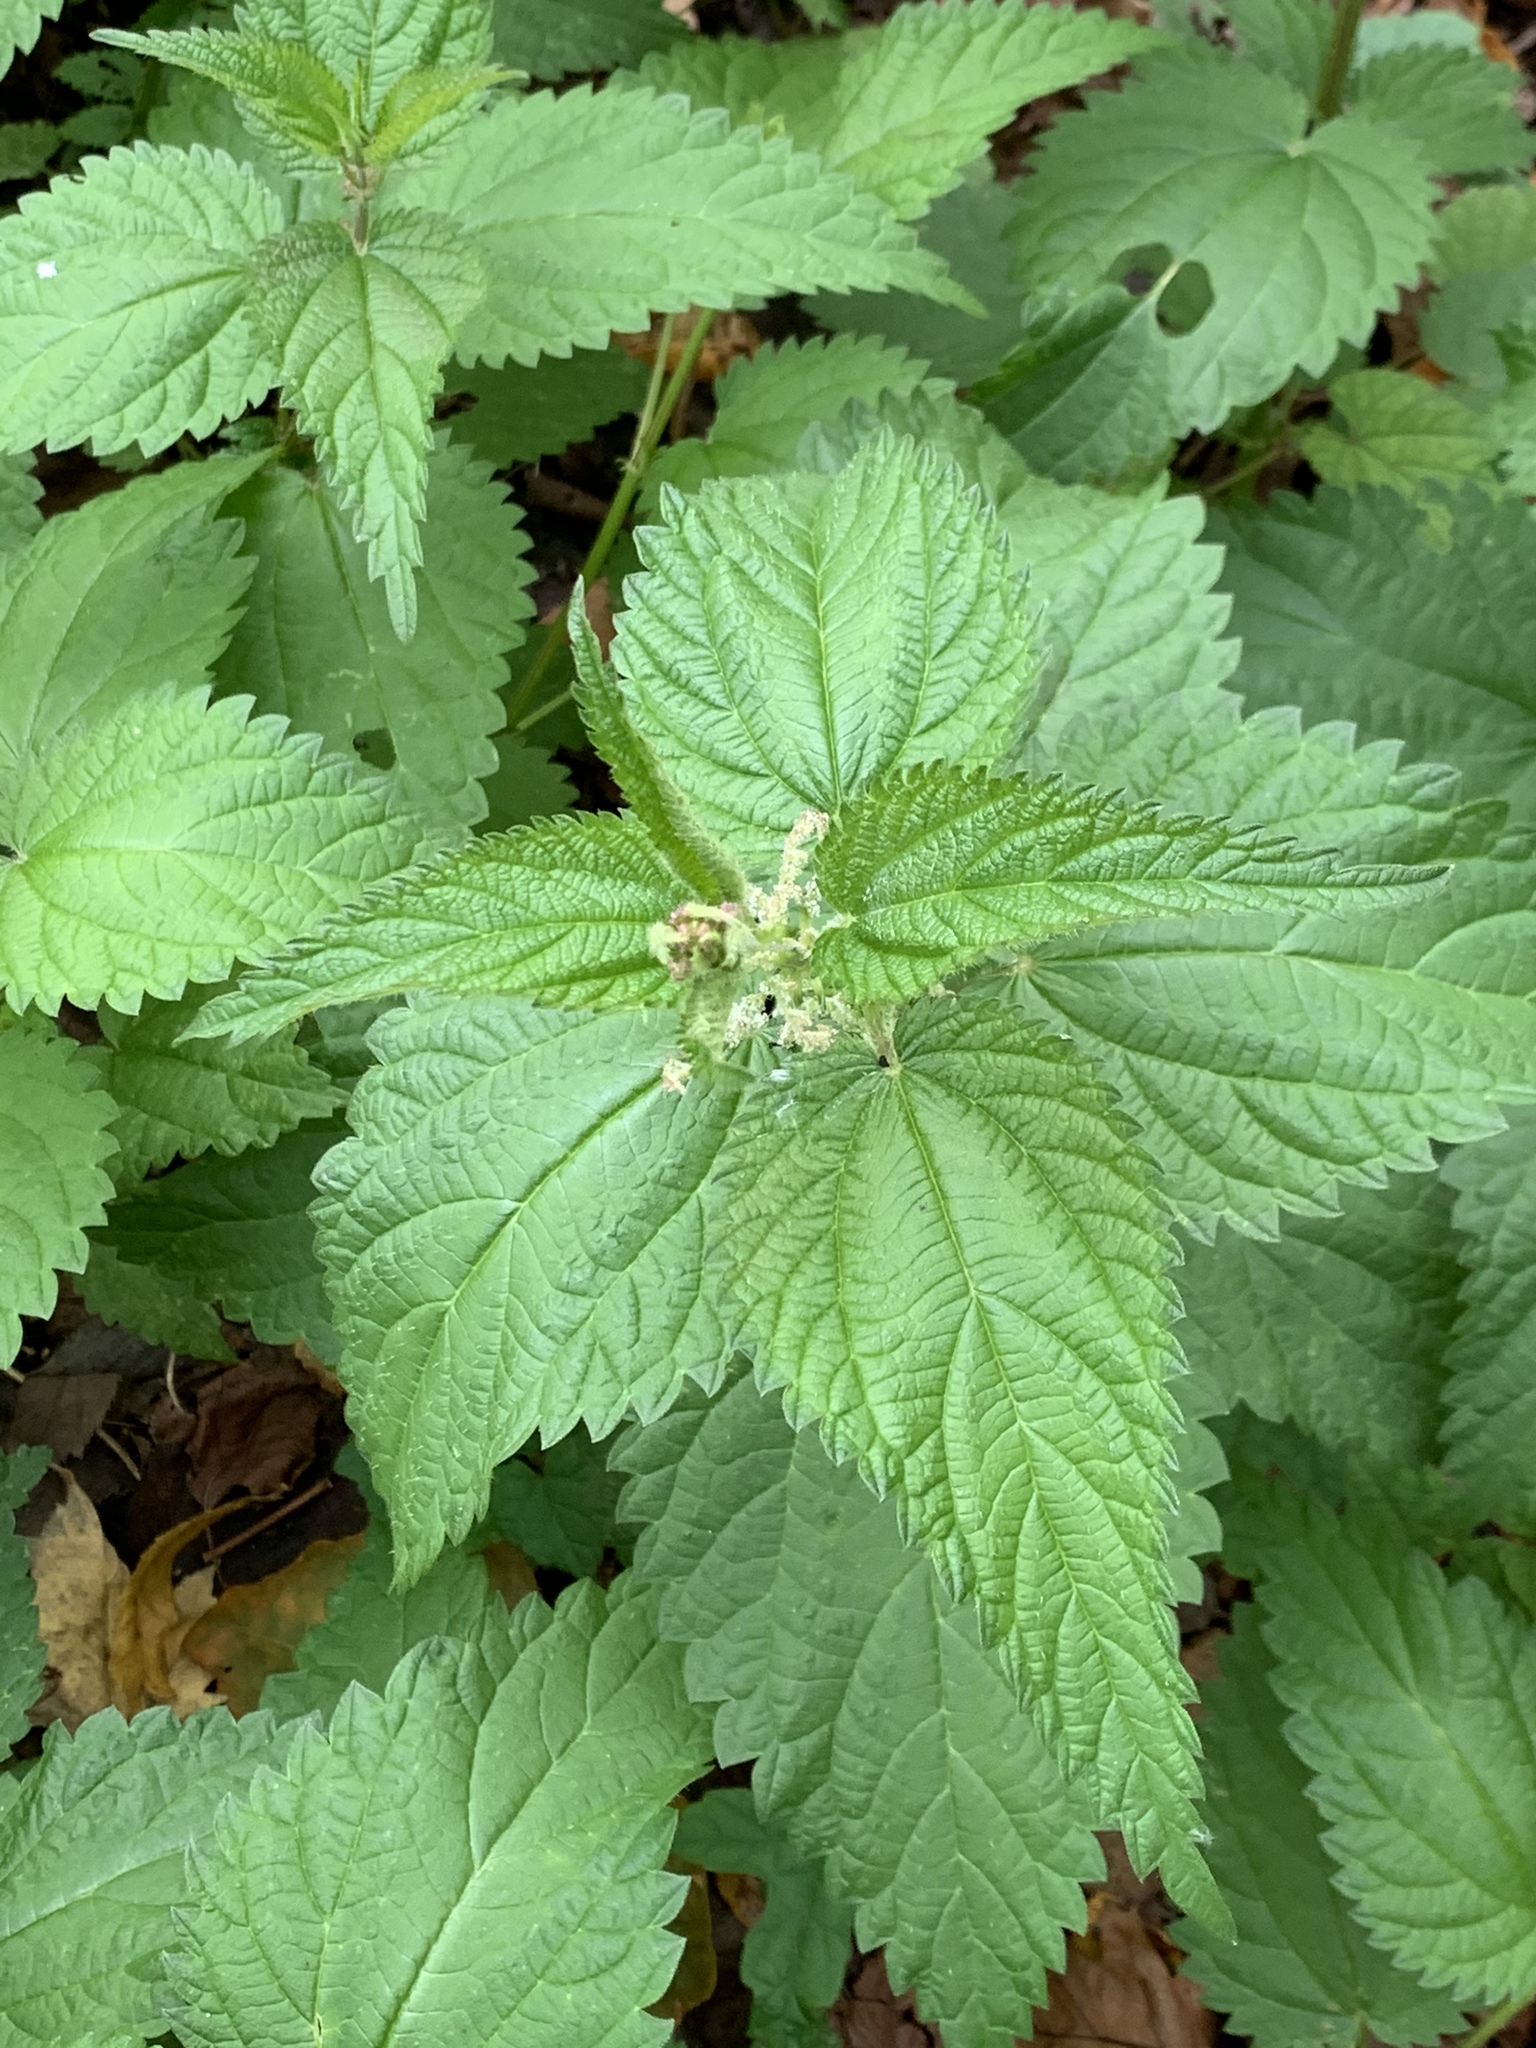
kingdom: Plantae
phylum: Tracheophyta
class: Magnoliopsida
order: Rosales
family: Urticaceae
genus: Urtica
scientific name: Urtica dioica
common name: Common nettle
